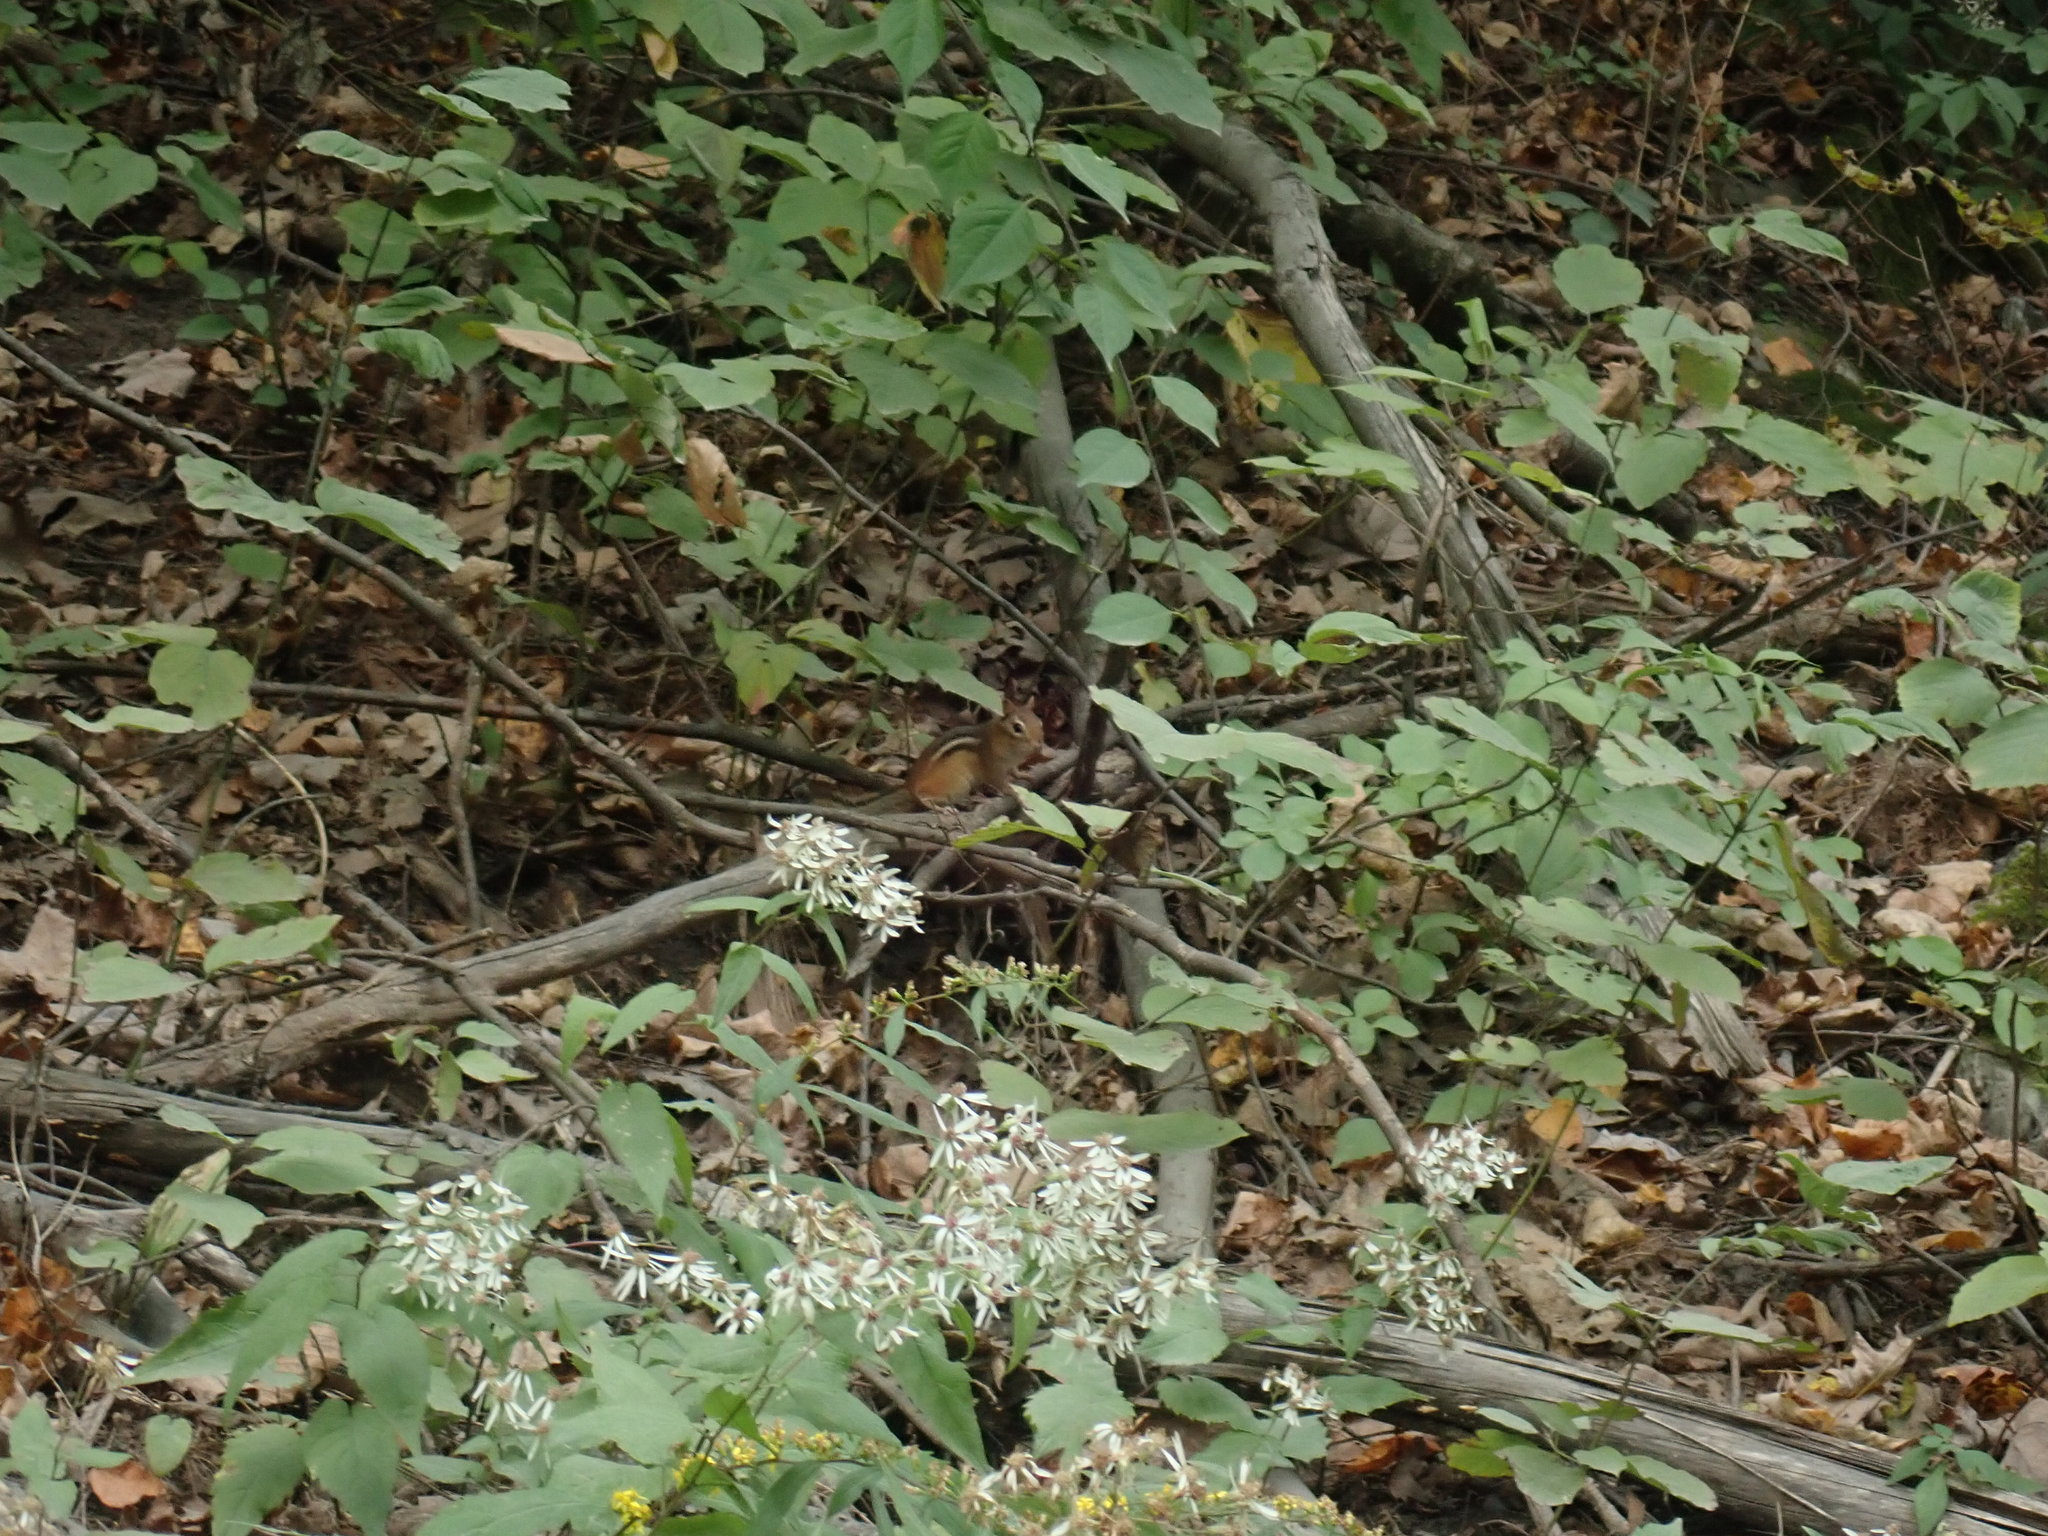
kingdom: Animalia
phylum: Chordata
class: Mammalia
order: Rodentia
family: Sciuridae
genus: Tamias
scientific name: Tamias striatus
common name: Eastern chipmunk
